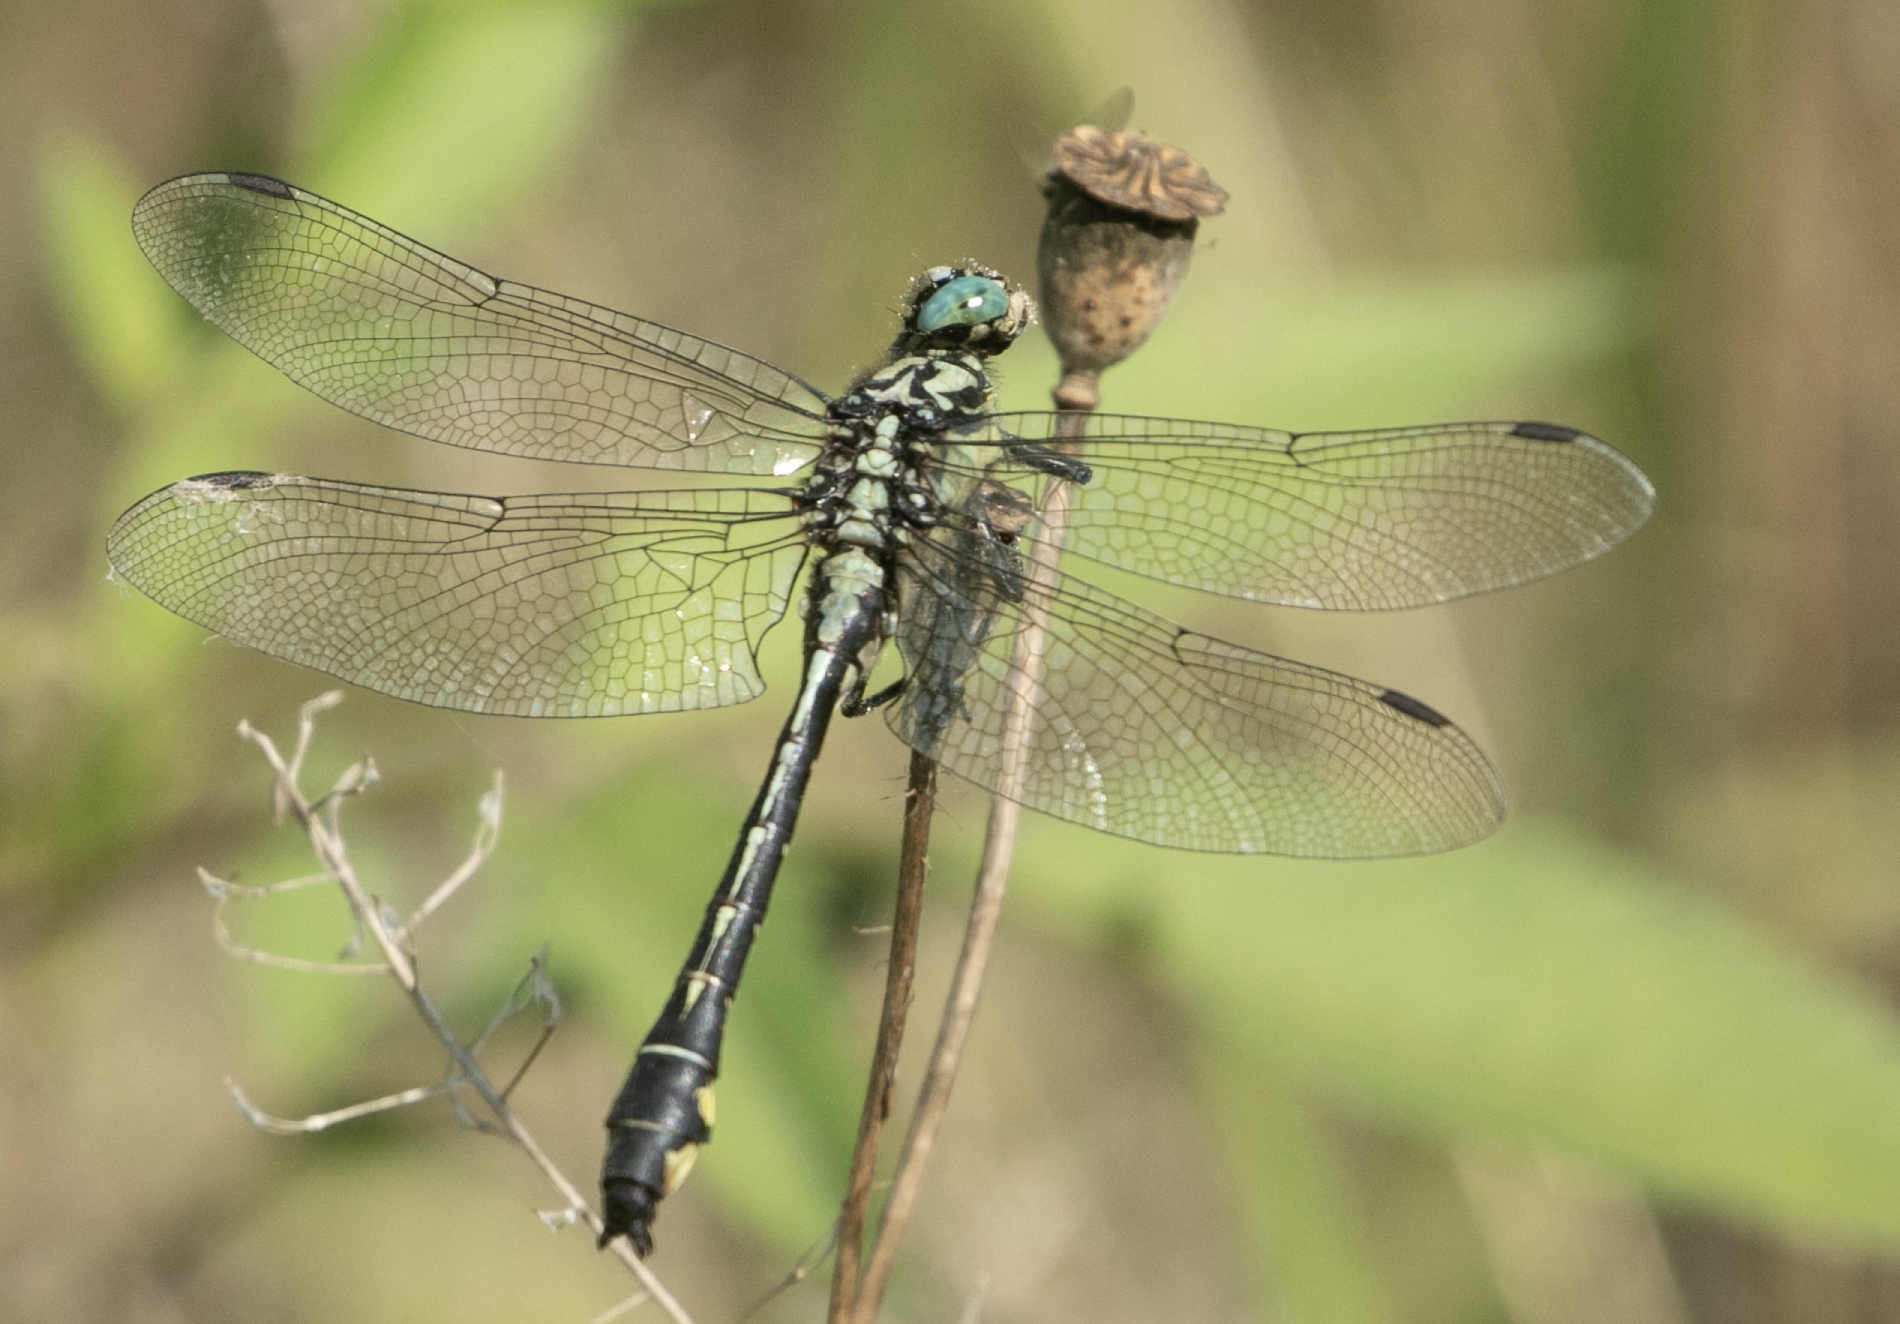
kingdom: Animalia
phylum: Arthropoda
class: Insecta
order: Odonata
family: Gomphidae
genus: Gomphus
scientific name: Gomphus vulgatissimus
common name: Club-tailed dragonfly
